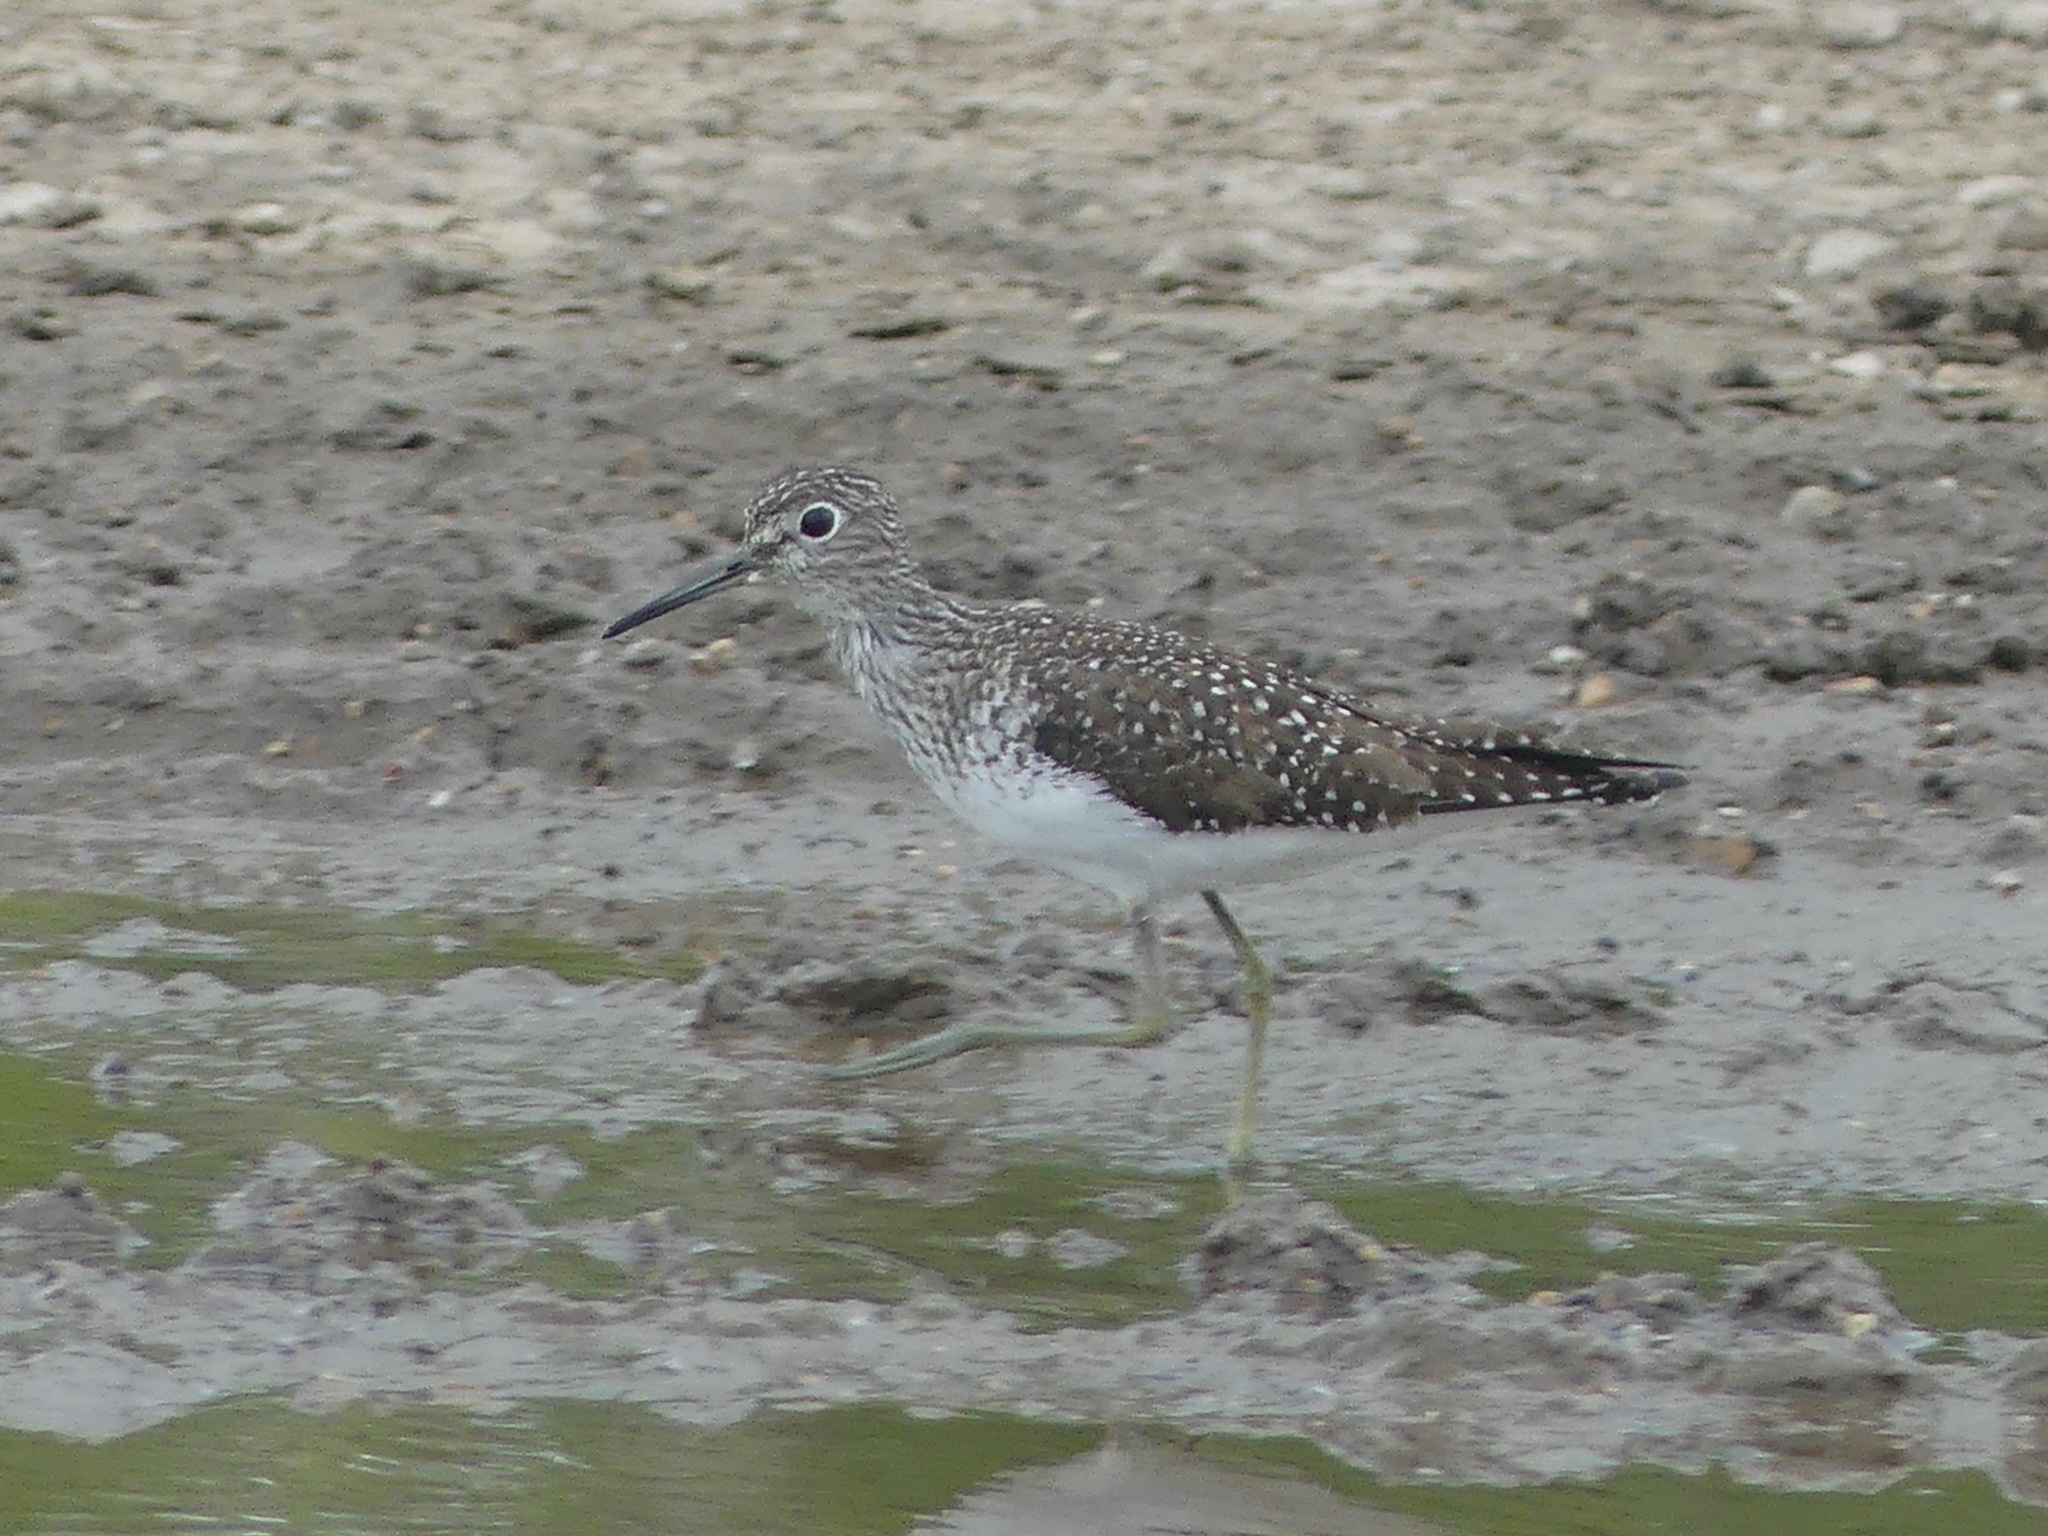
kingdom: Animalia
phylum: Chordata
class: Aves
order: Charadriiformes
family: Scolopacidae
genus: Tringa
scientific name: Tringa solitaria
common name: Solitary sandpiper
